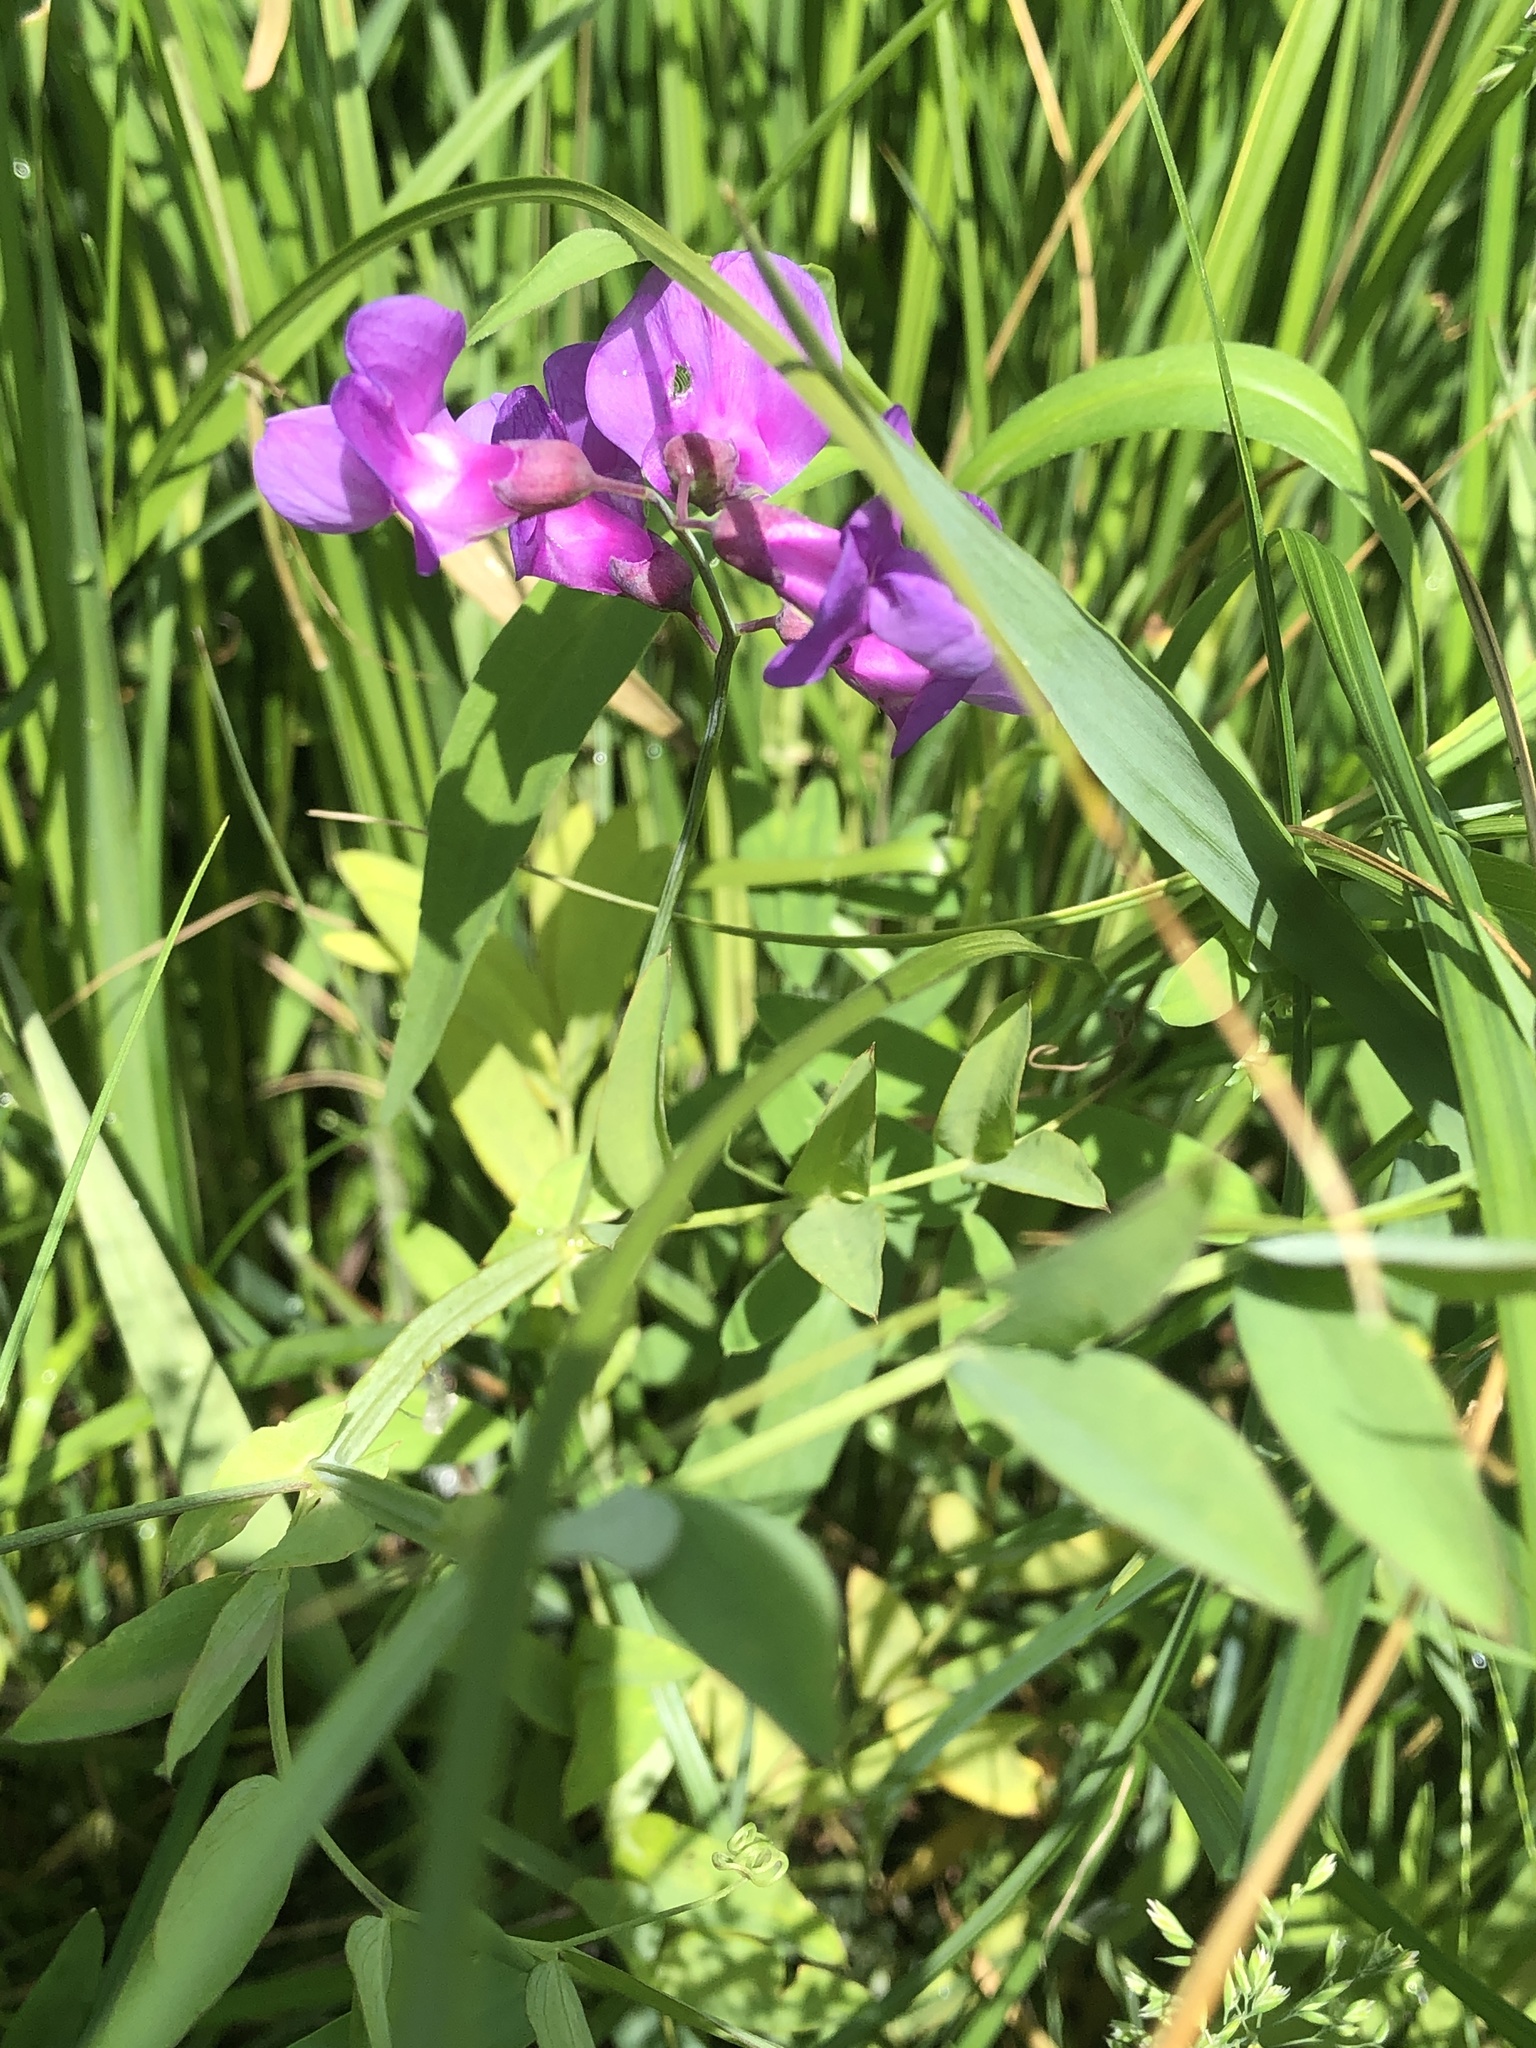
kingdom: Plantae
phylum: Tracheophyta
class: Magnoliopsida
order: Fabales
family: Fabaceae
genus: Lathyrus
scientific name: Lathyrus palustris
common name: Marsh pea
